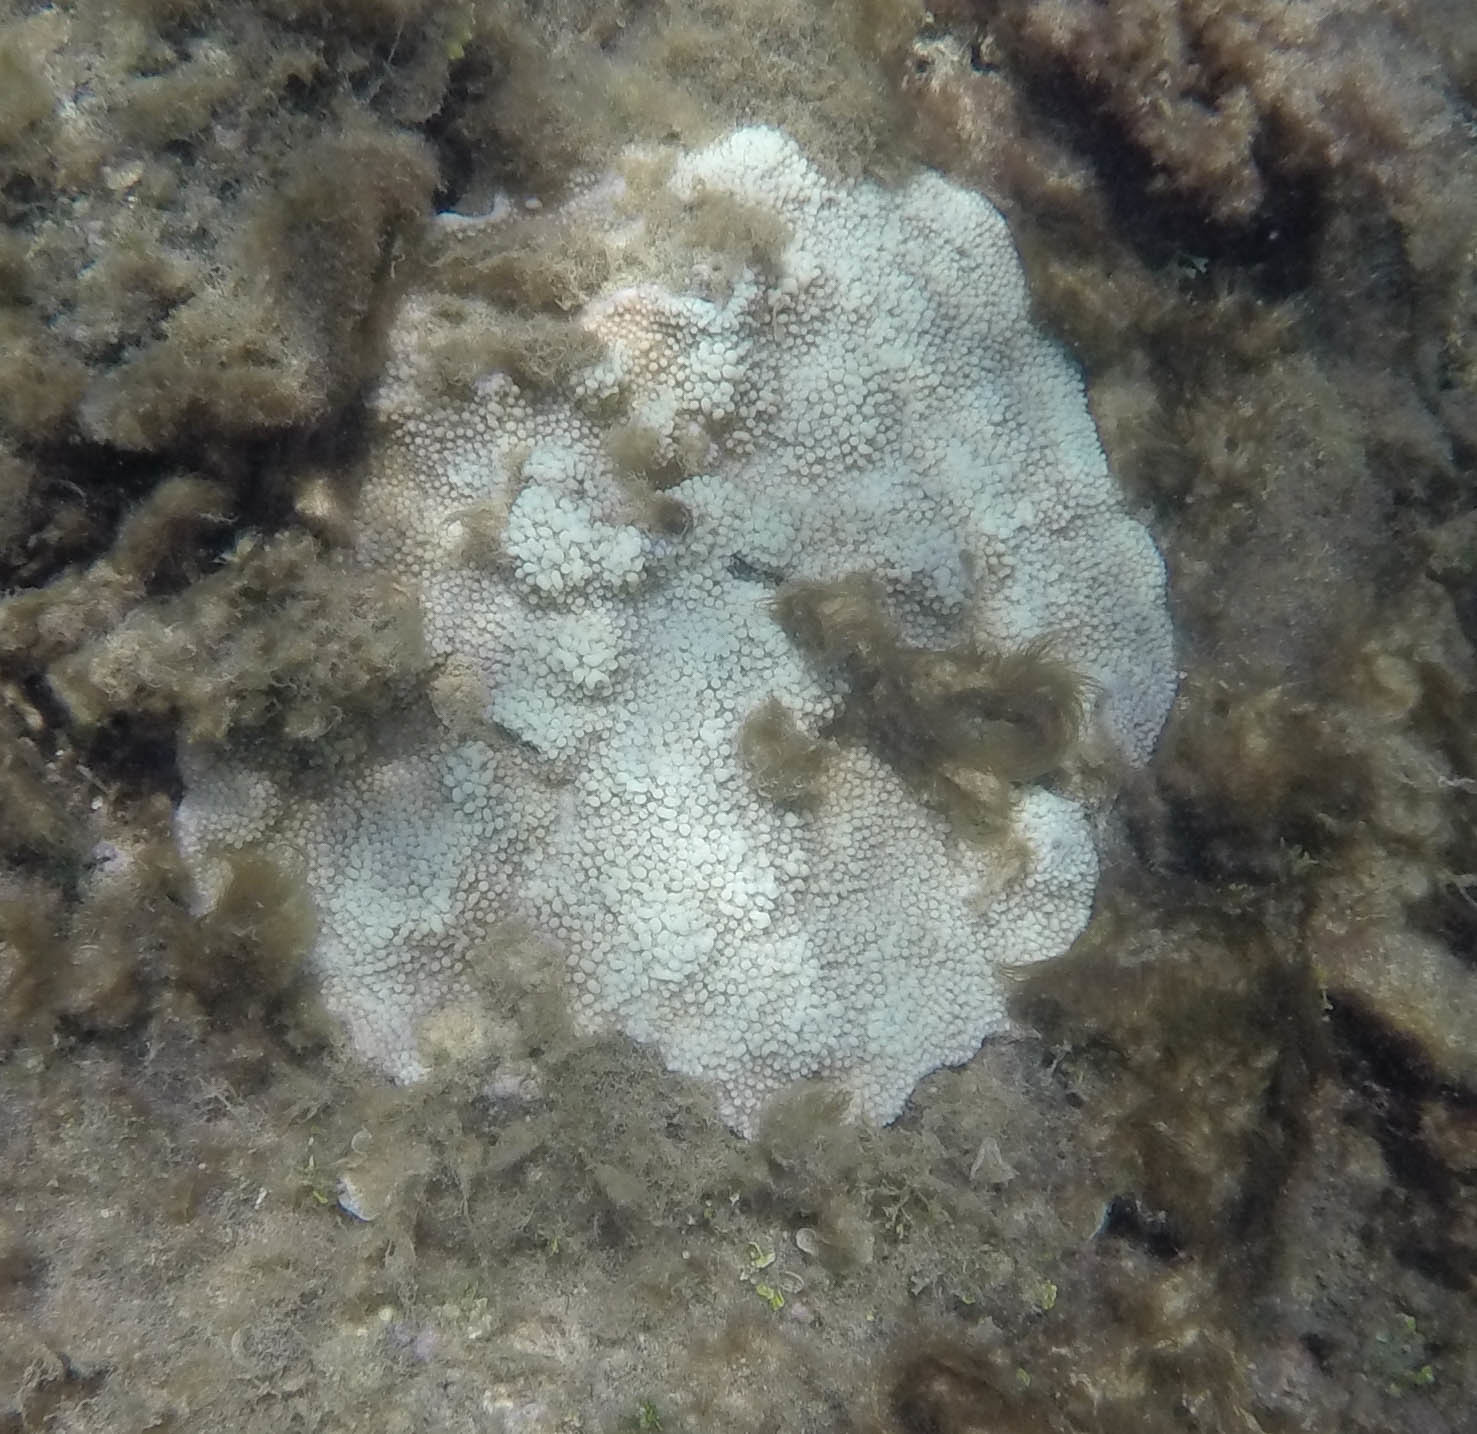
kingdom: Animalia
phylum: Cnidaria
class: Anthozoa
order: Scleractinia
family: Acroporidae
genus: Montipora
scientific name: Montipora capitata
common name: Pore coral
